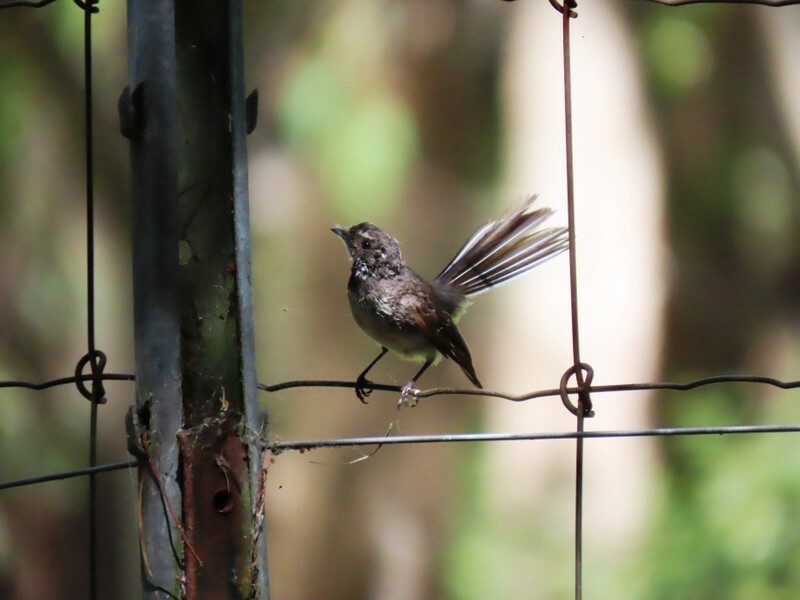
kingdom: Animalia
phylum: Chordata
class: Aves
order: Passeriformes
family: Rhipiduridae
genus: Rhipidura
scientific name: Rhipidura albiscapa
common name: Grey fantail
